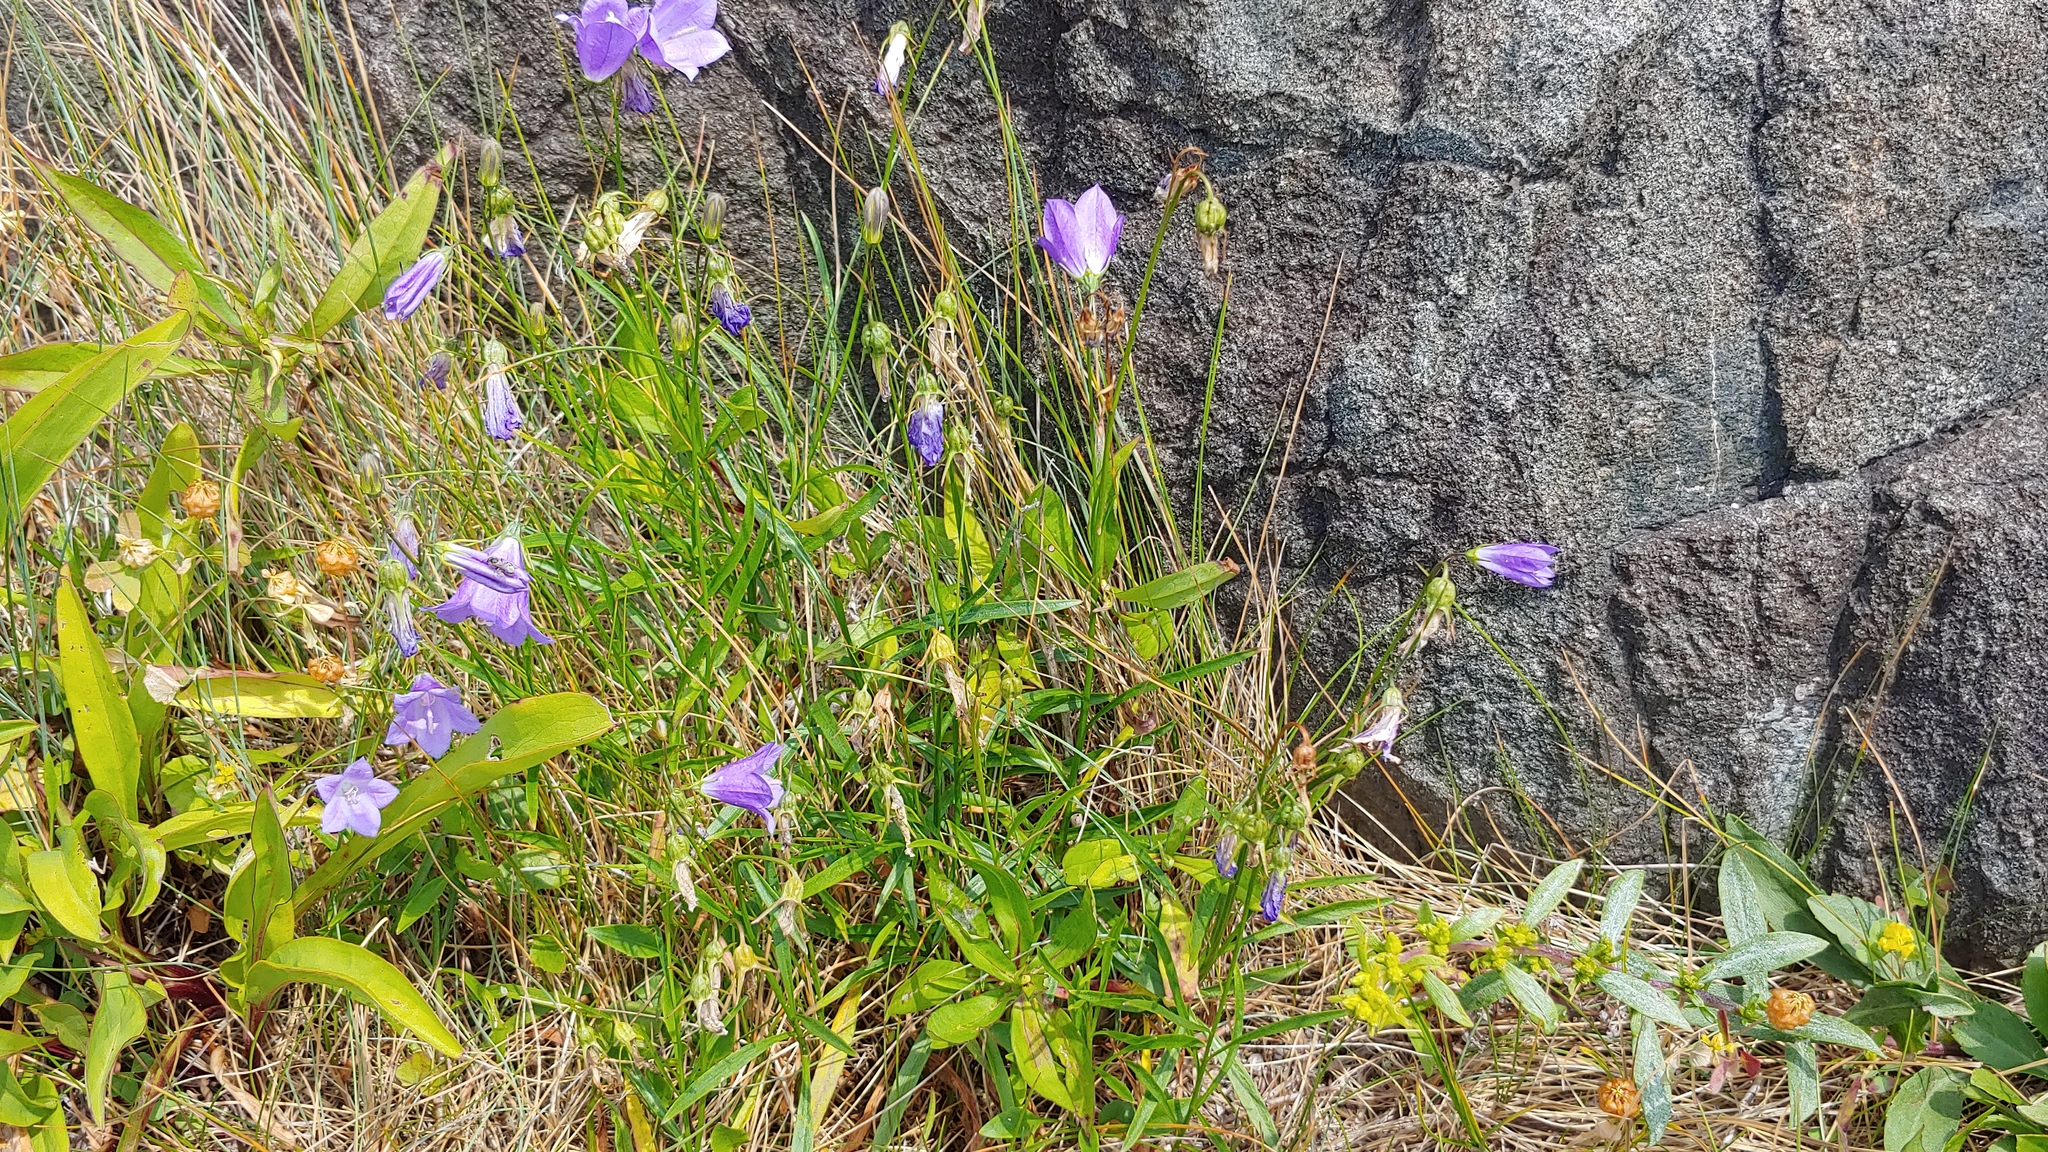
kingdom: Plantae
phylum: Tracheophyta
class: Magnoliopsida
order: Asterales
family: Campanulaceae
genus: Campanula
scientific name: Campanula intercedens
